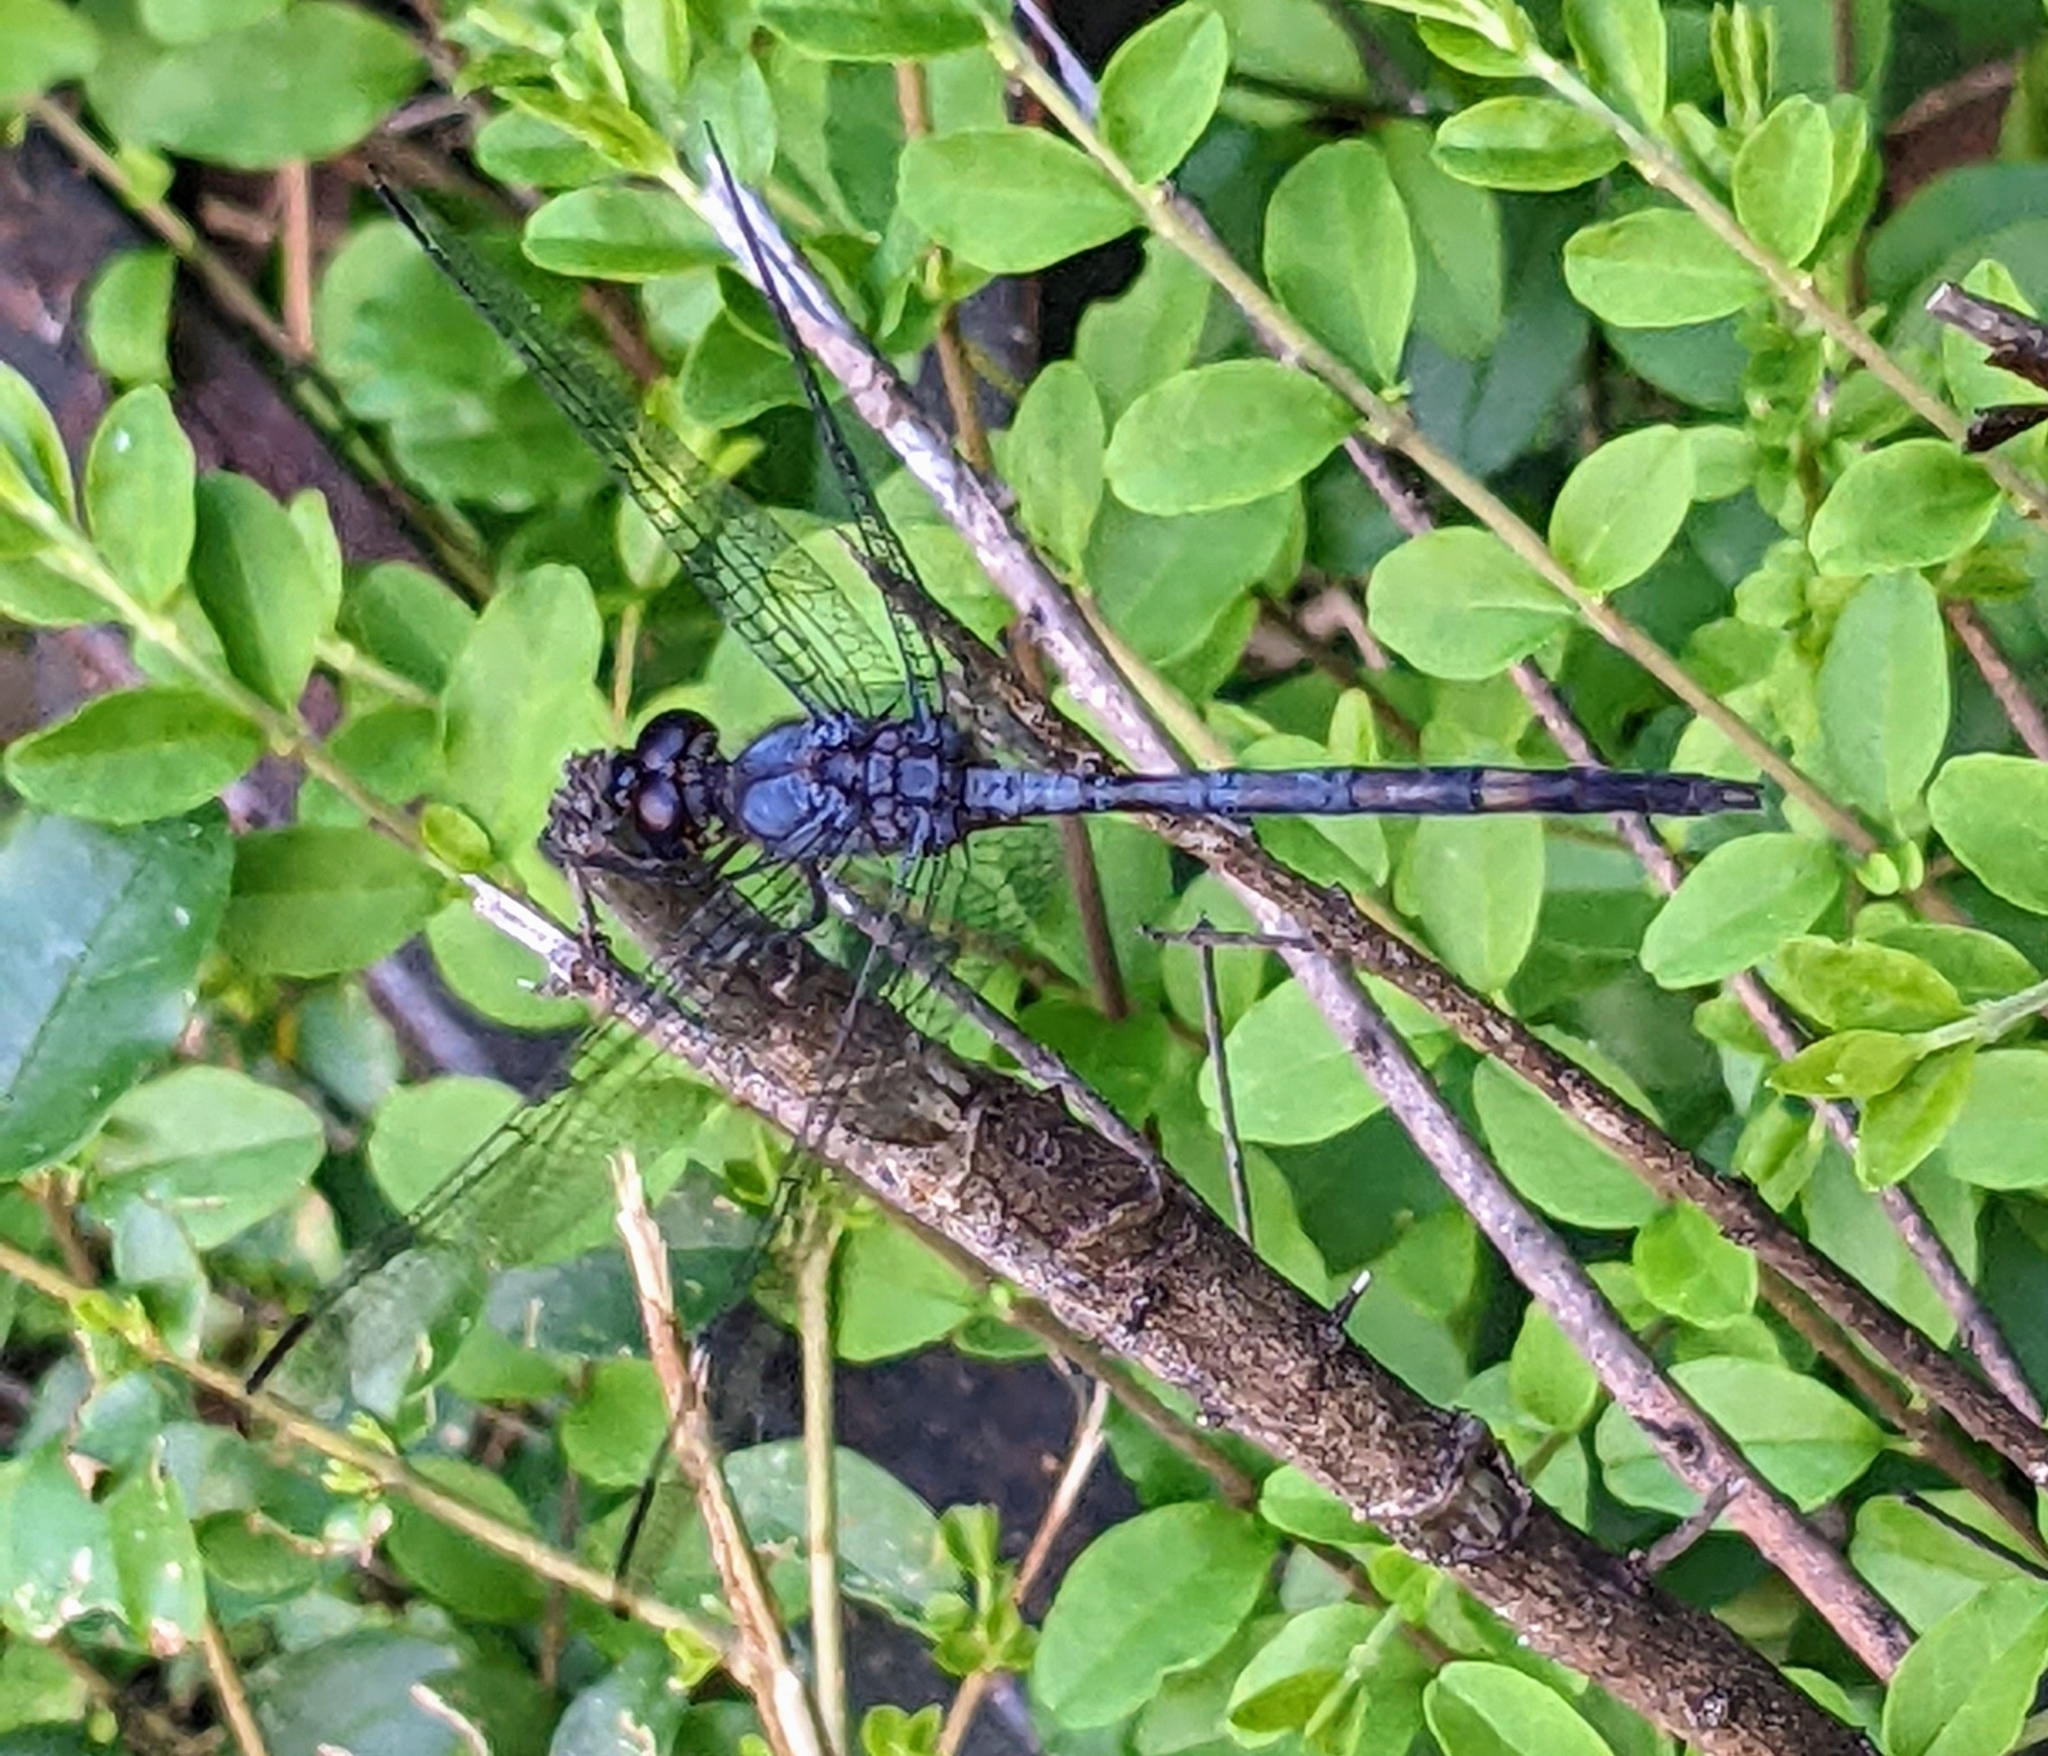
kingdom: Animalia
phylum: Arthropoda
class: Insecta
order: Odonata
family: Libellulidae
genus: Dythemis
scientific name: Dythemis nigrescens
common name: Black setwing
